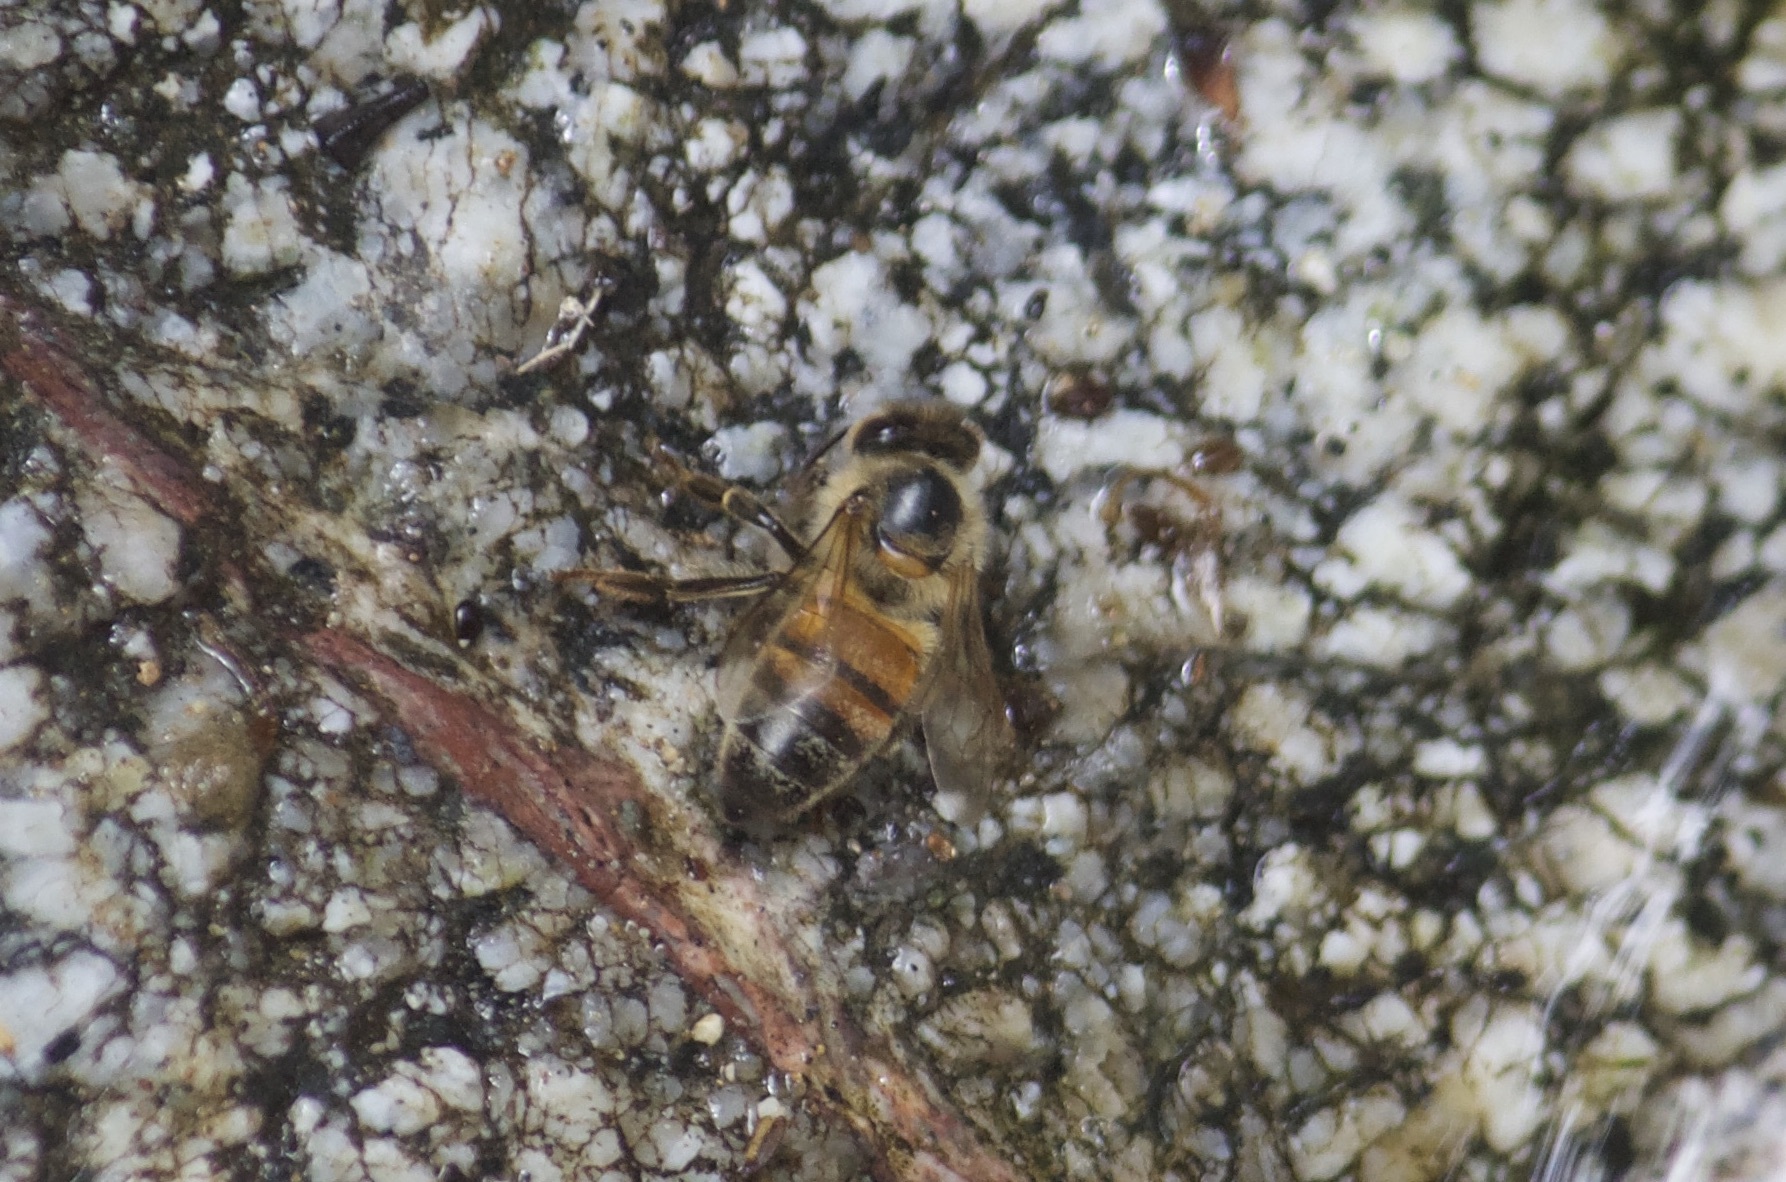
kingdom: Animalia
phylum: Arthropoda
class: Insecta
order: Hymenoptera
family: Apidae
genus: Apis
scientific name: Apis mellifera
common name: Honey bee
